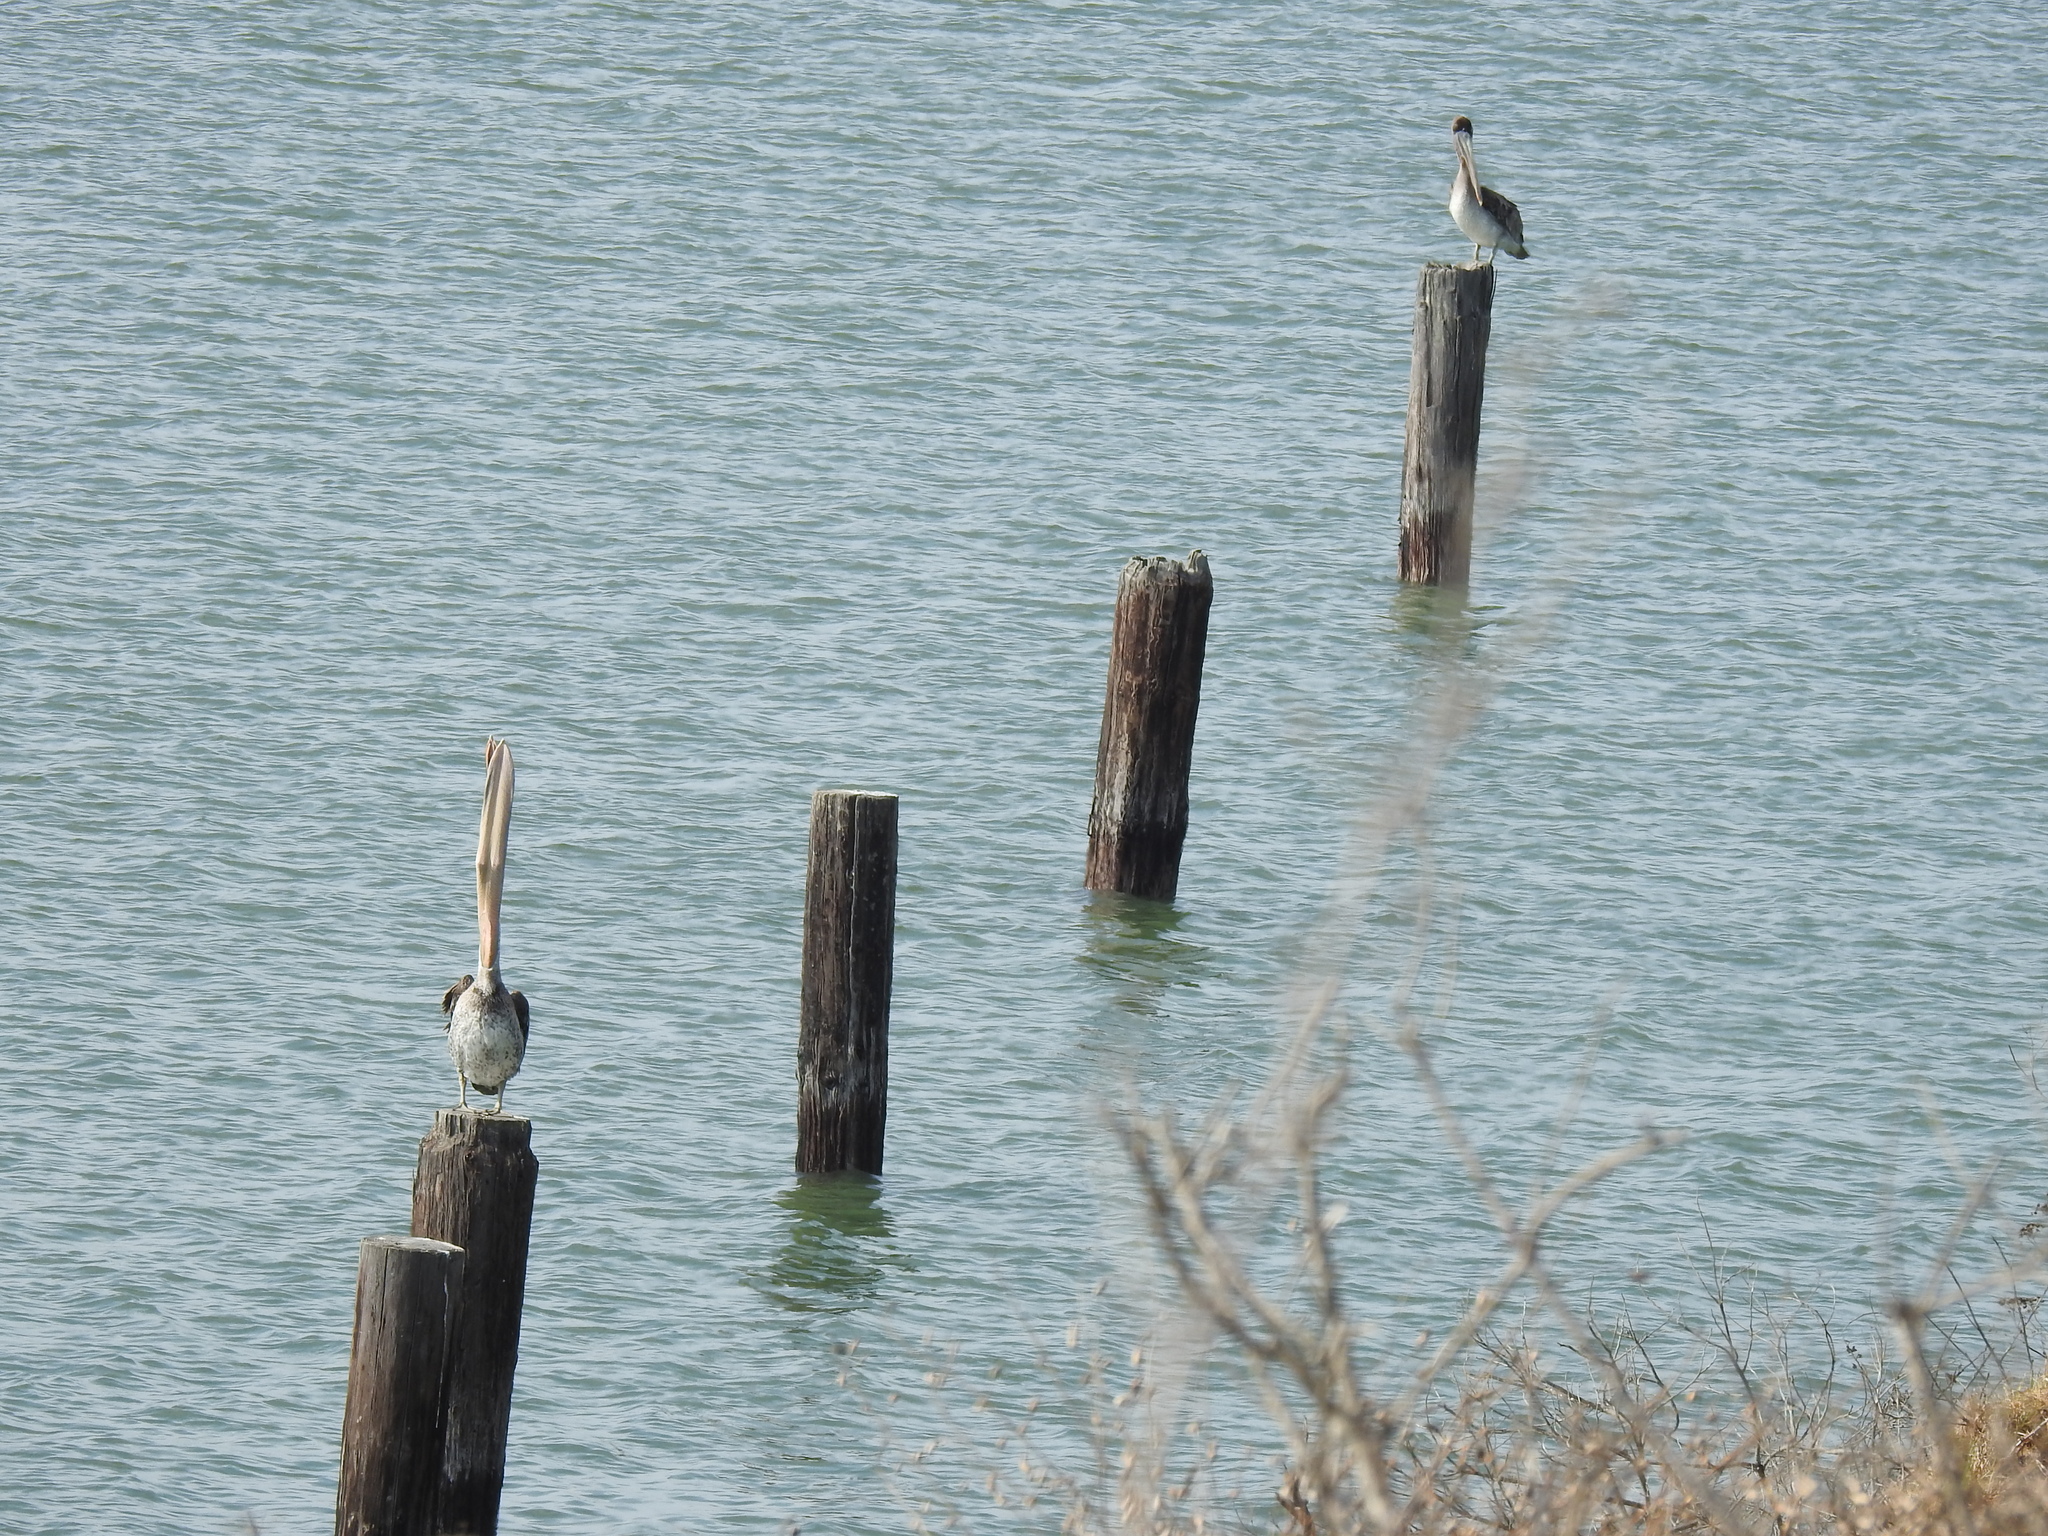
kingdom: Animalia
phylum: Chordata
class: Aves
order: Pelecaniformes
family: Pelecanidae
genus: Pelecanus
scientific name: Pelecanus occidentalis
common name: Brown pelican
